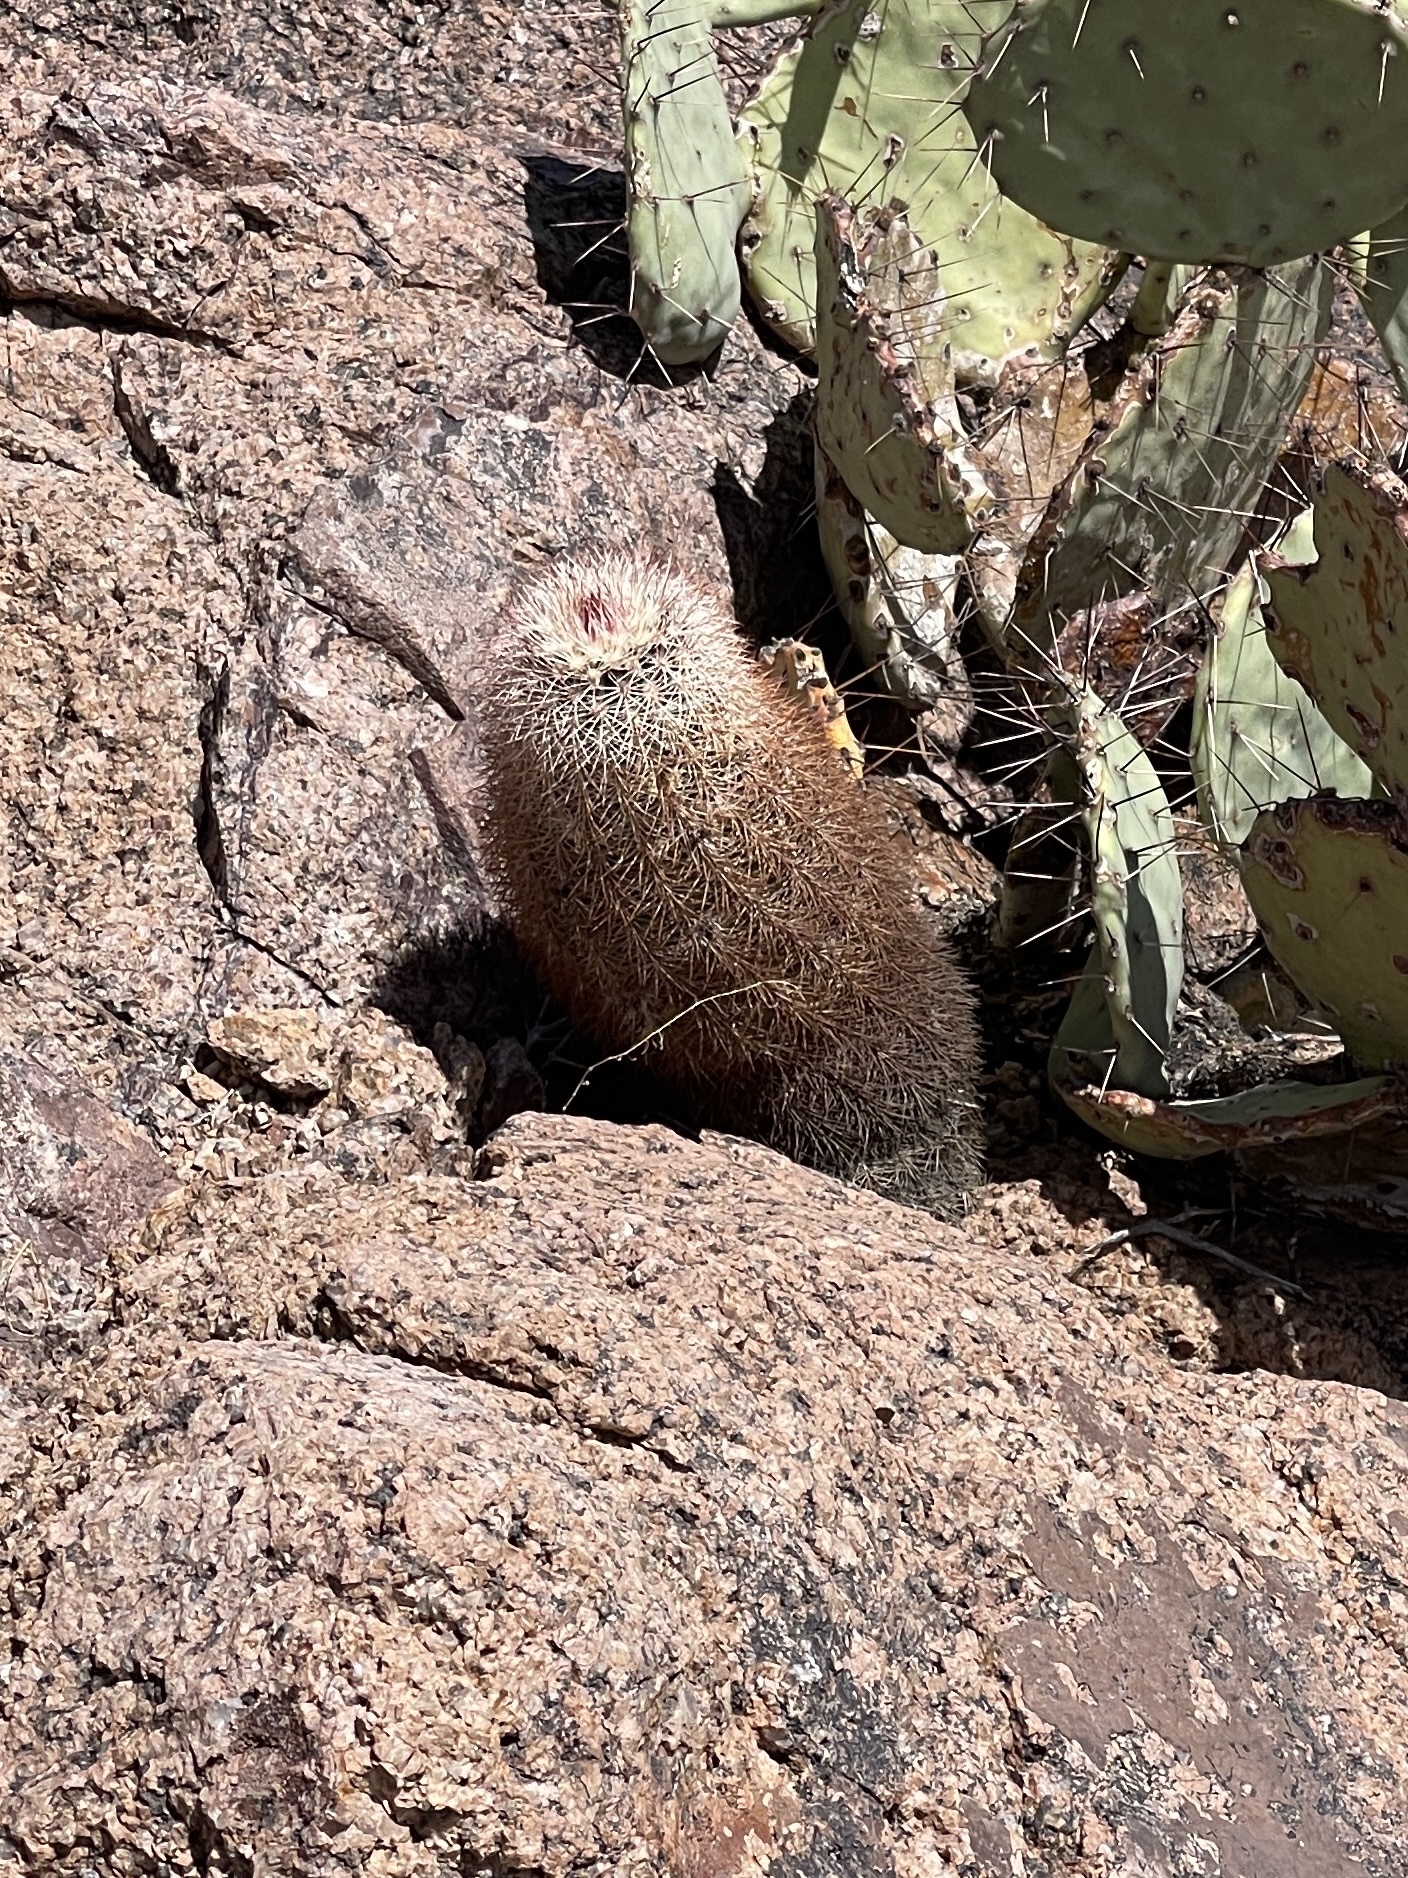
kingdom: Plantae
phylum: Tracheophyta
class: Magnoliopsida
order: Caryophyllales
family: Cactaceae
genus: Echinocereus
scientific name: Echinocereus dasyacanthus
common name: Spiny hedgehog cactus
